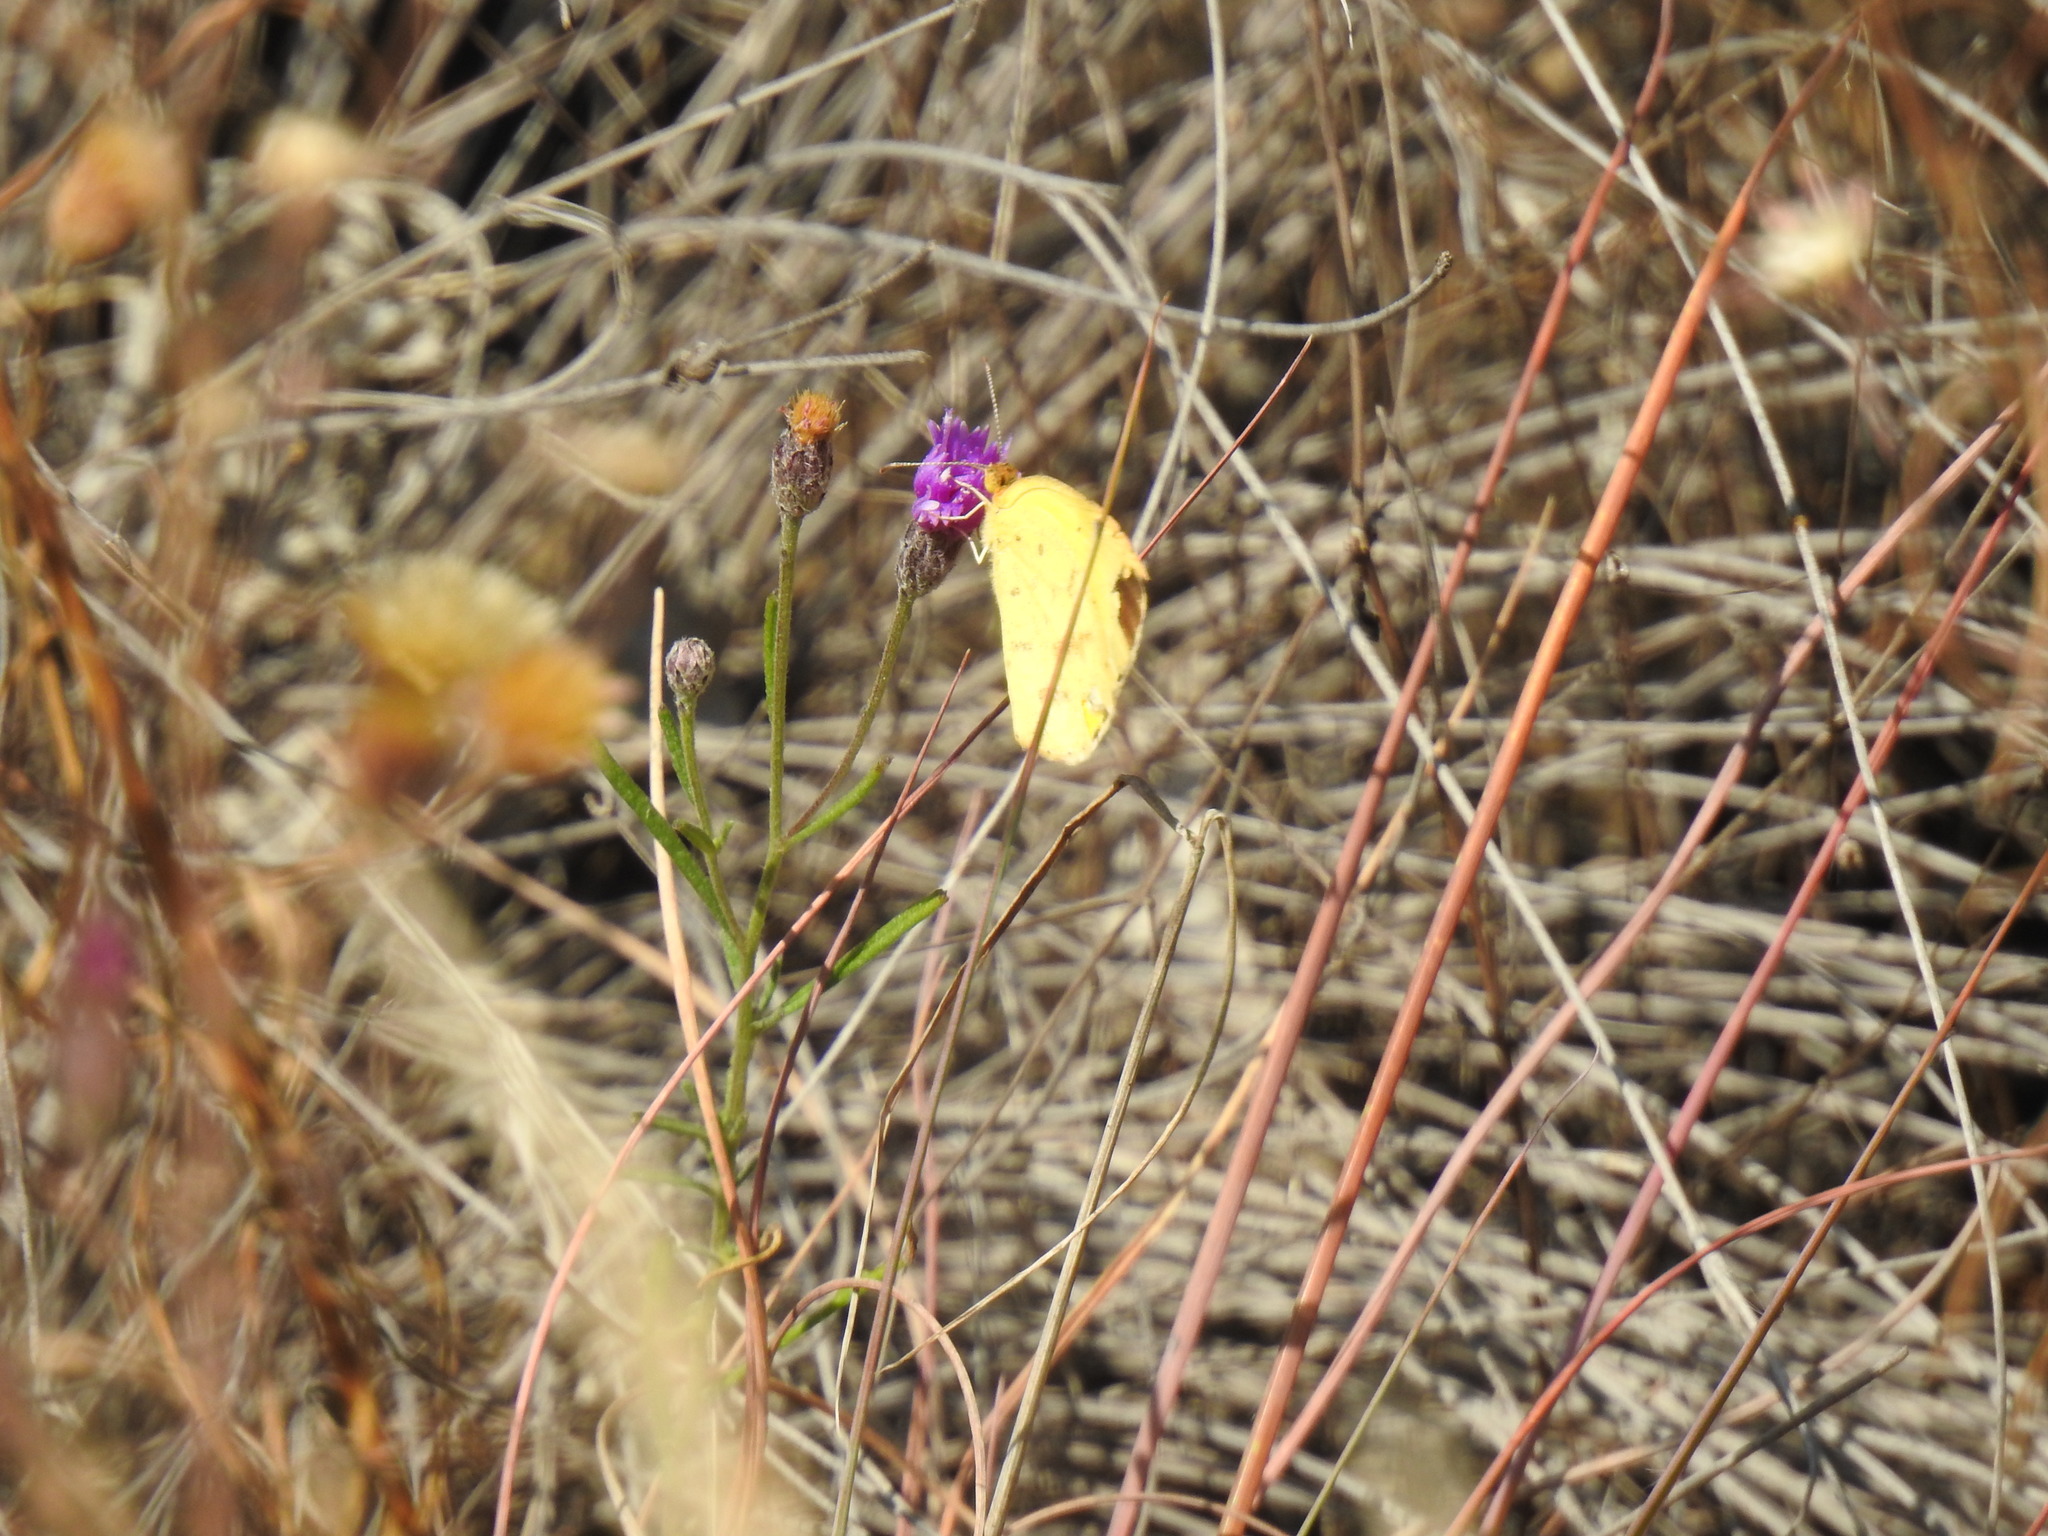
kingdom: Animalia
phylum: Arthropoda
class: Insecta
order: Lepidoptera
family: Pieridae
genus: Eurema
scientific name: Eurema brigitta
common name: Small grass yellow
